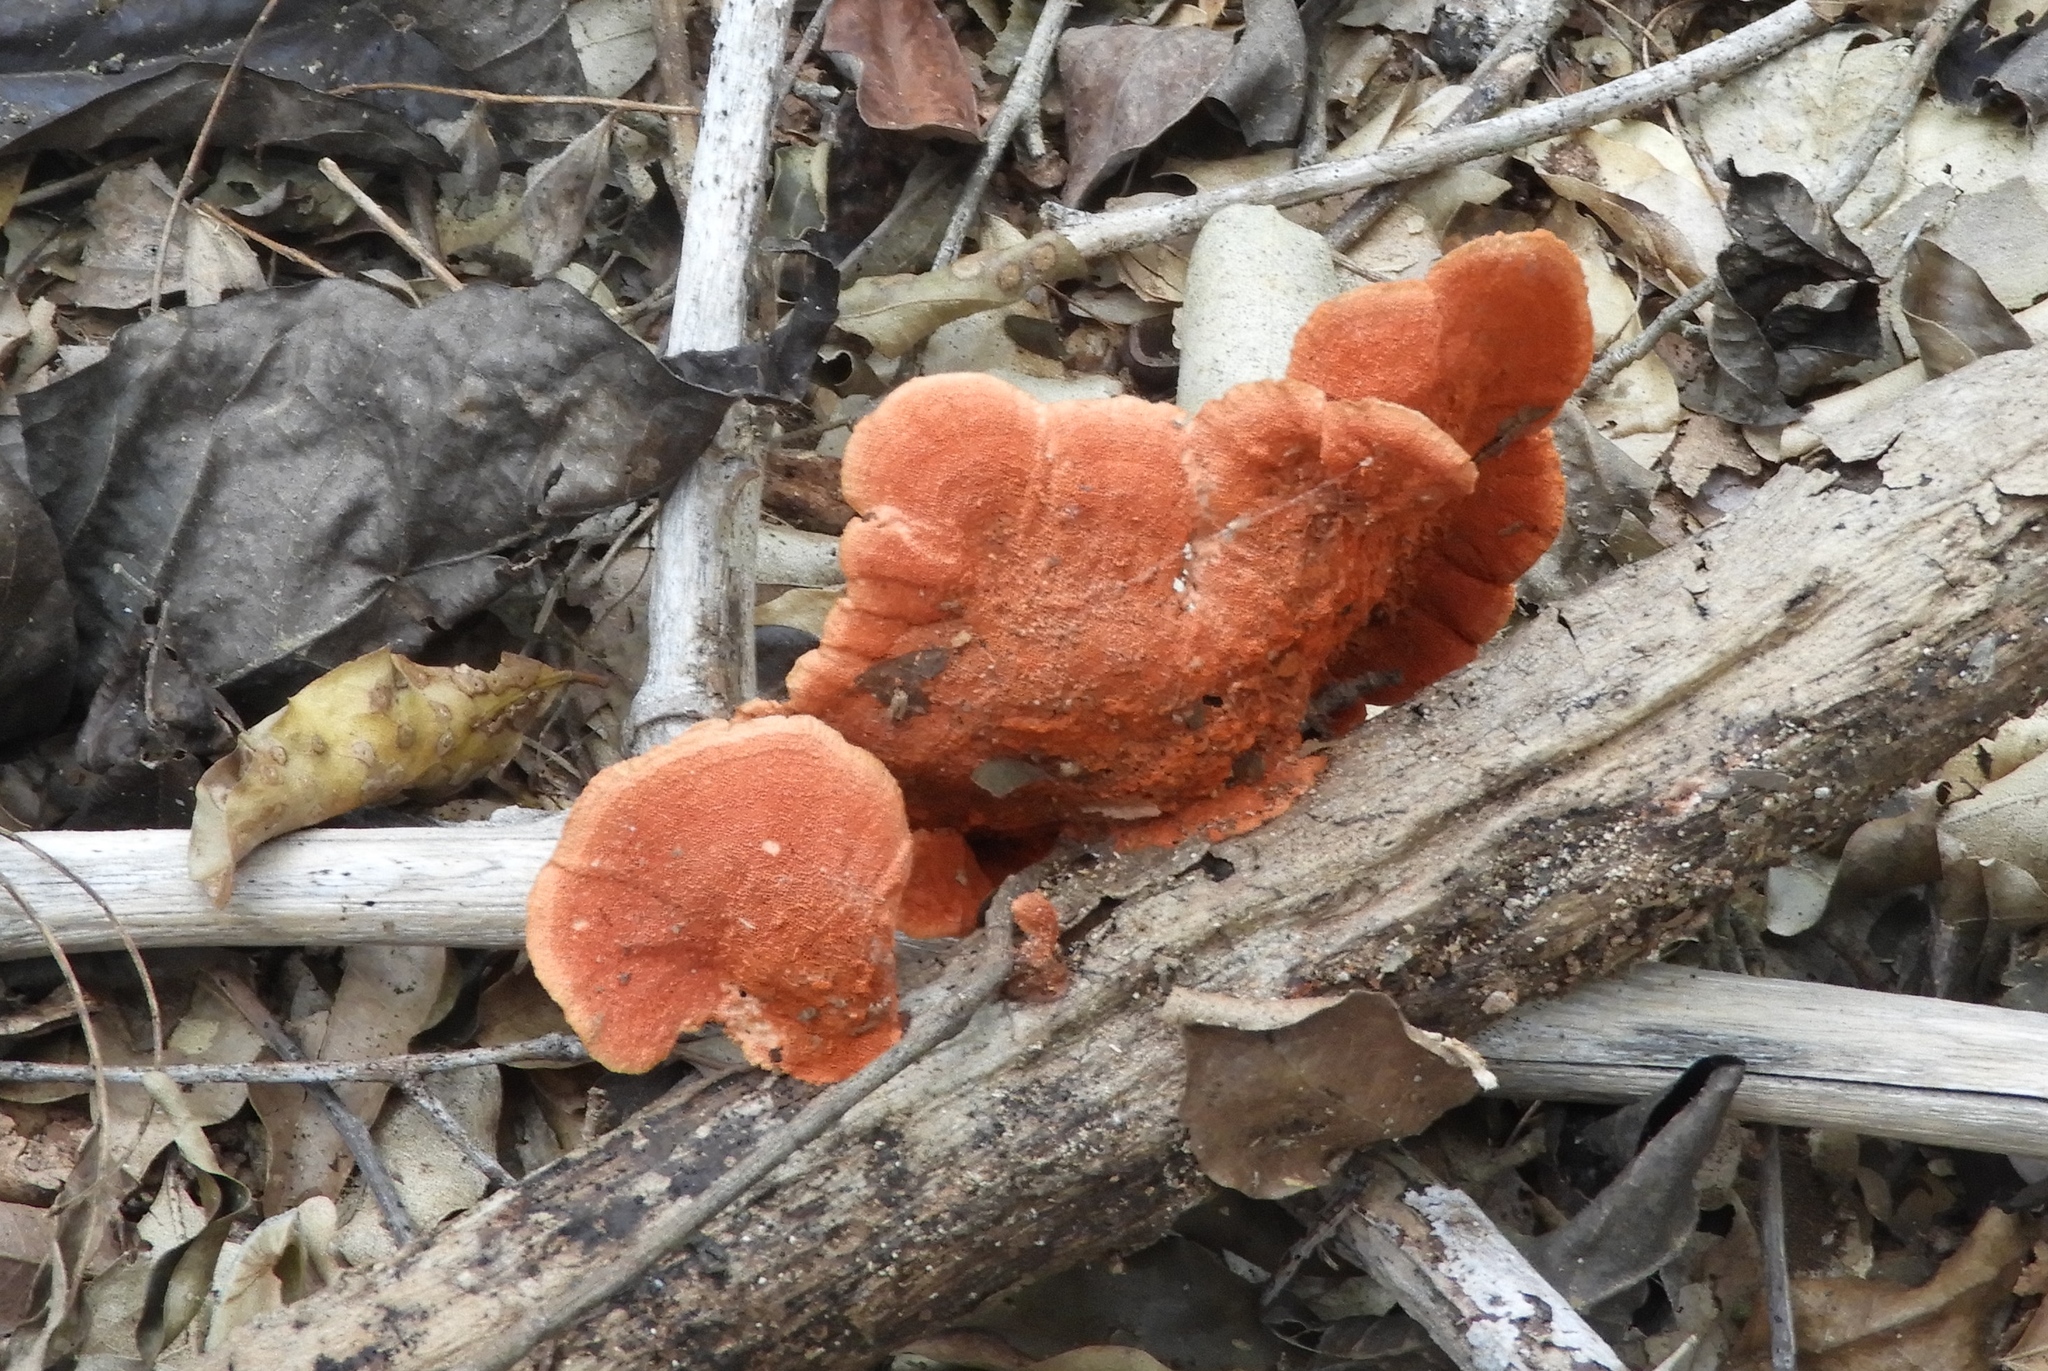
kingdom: Fungi
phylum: Basidiomycota
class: Agaricomycetes
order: Polyporales
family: Polyporaceae
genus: Trametes
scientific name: Trametes
